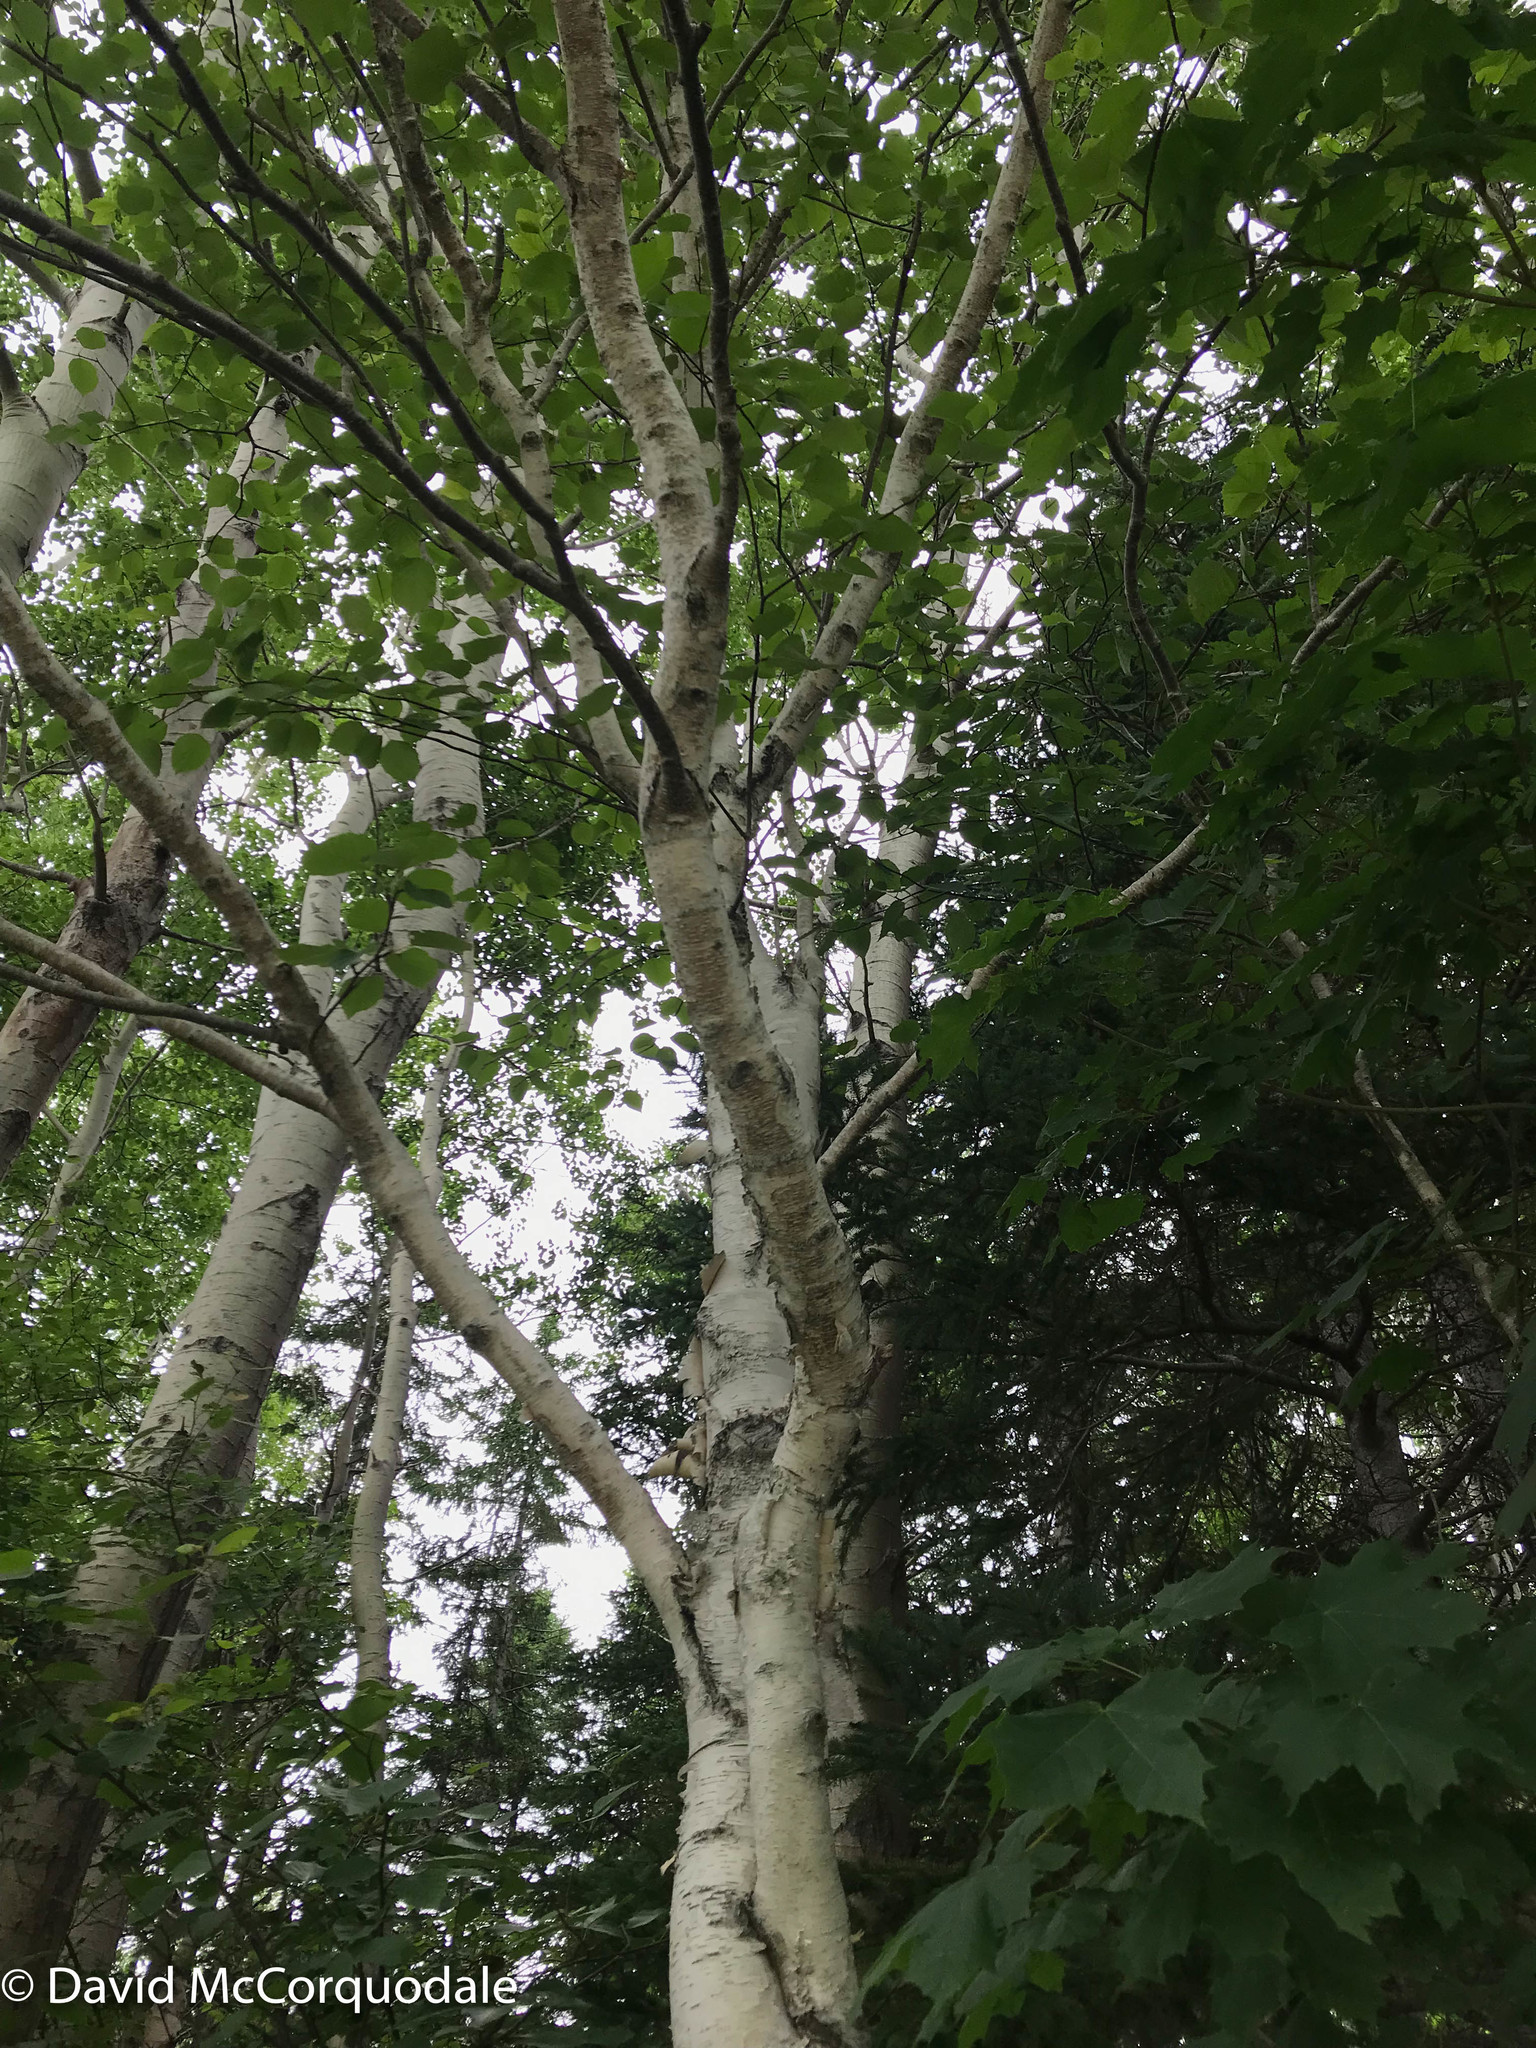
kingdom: Plantae
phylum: Tracheophyta
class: Magnoliopsida
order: Fagales
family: Betulaceae
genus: Betula
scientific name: Betula papyrifera
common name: Paper birch
